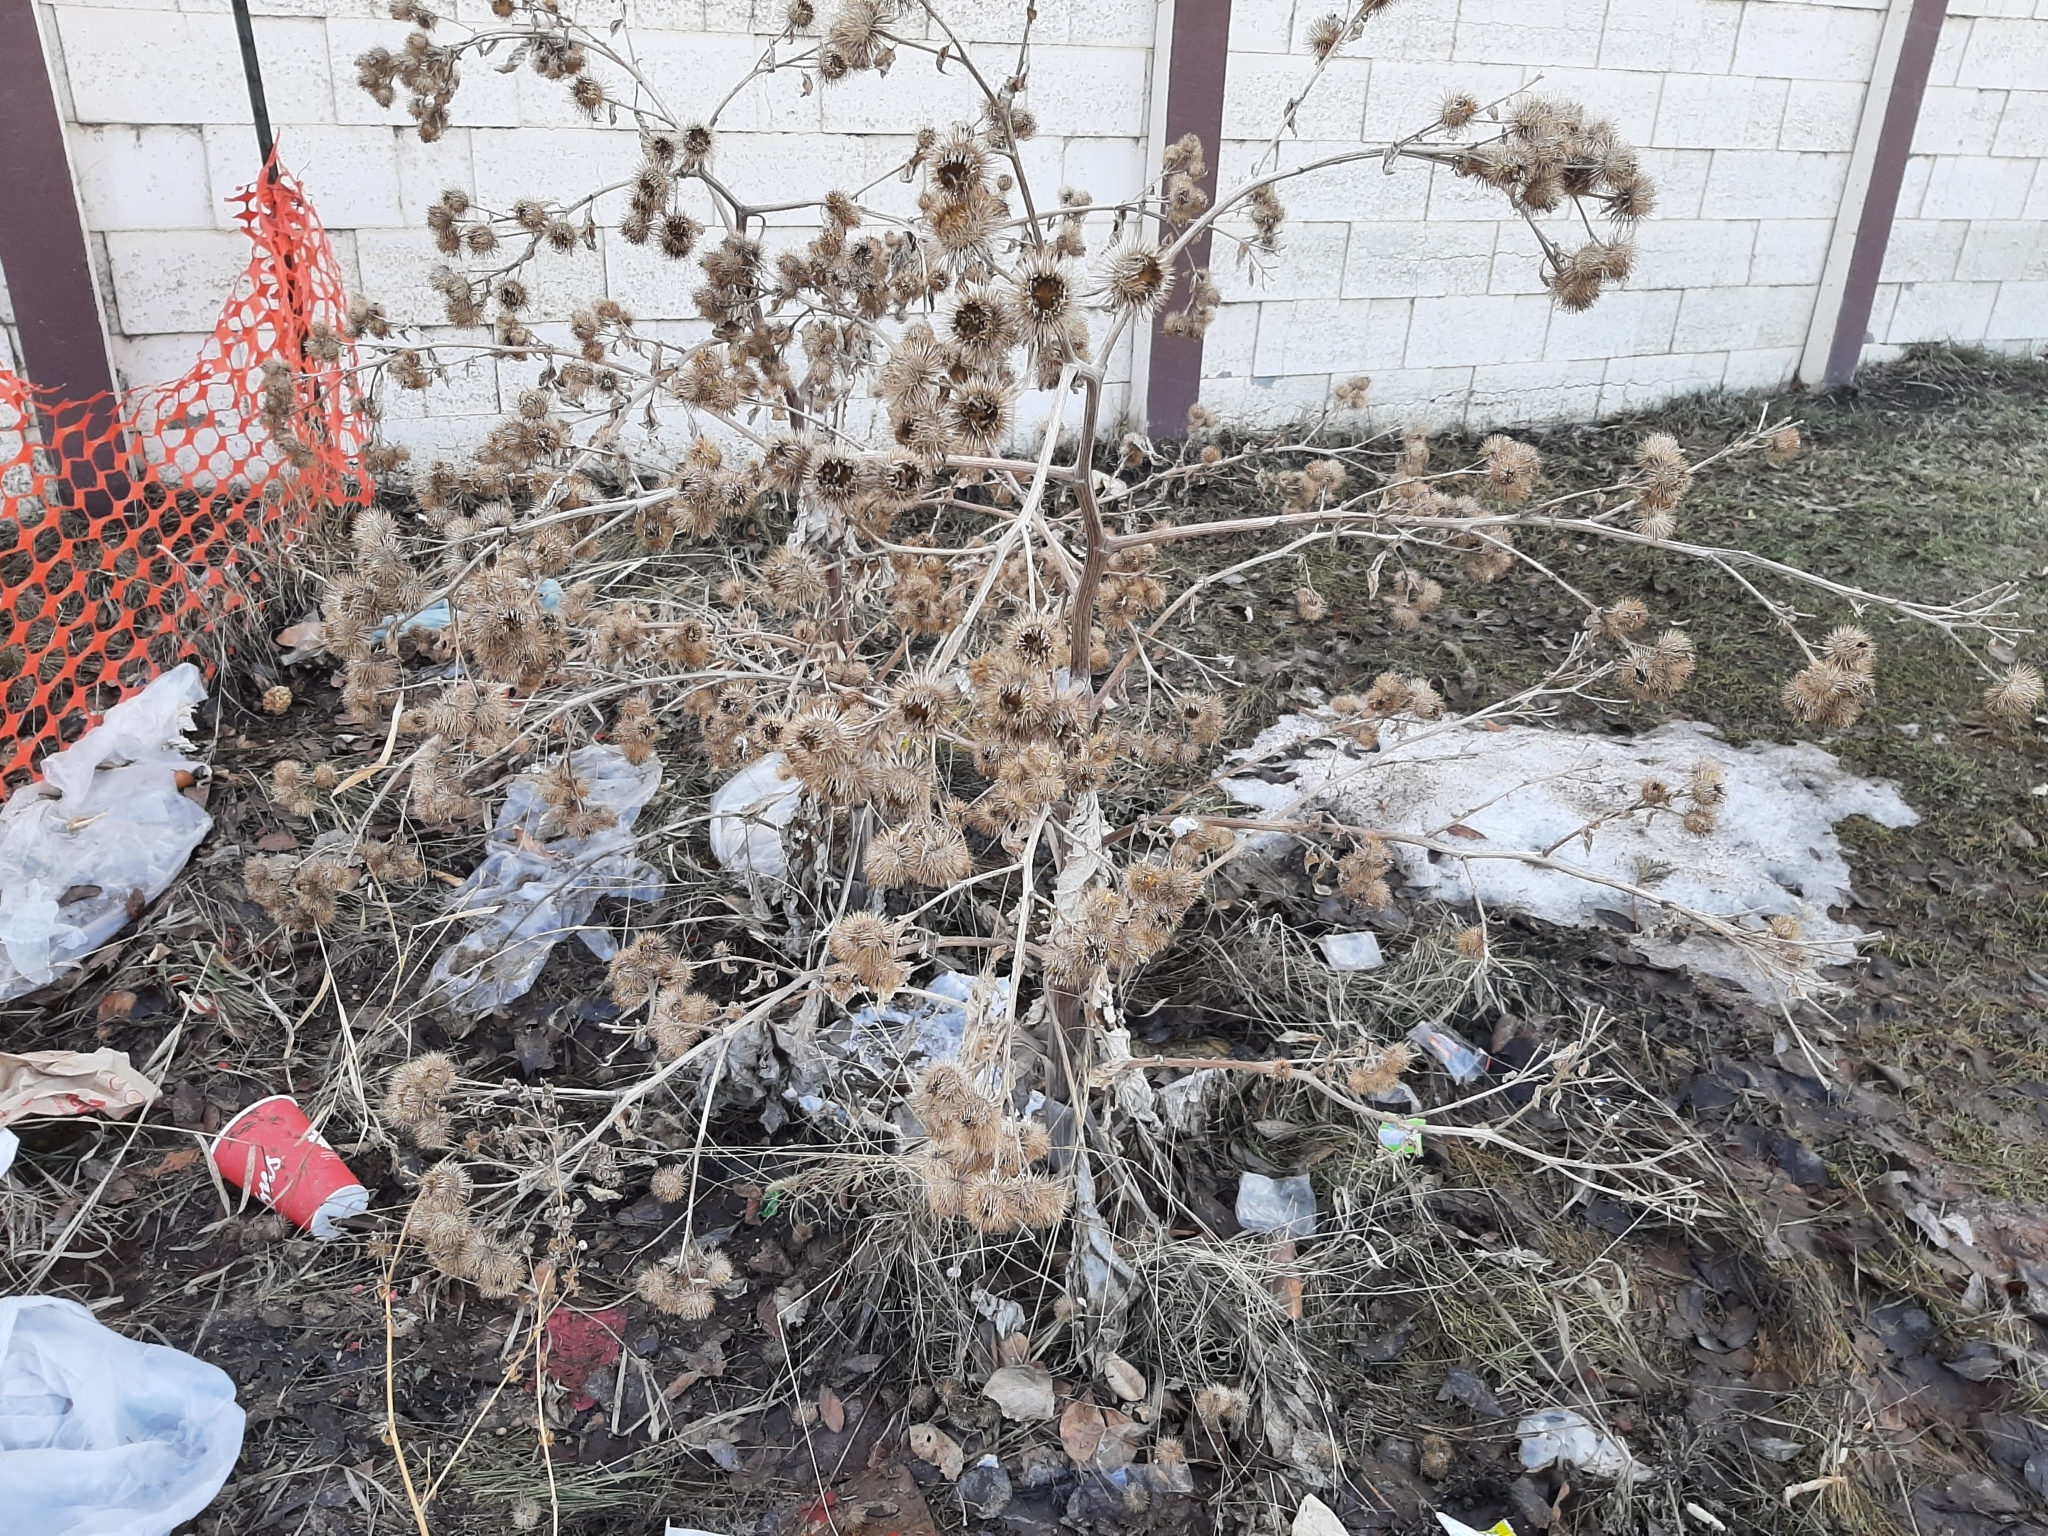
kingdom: Plantae
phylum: Tracheophyta
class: Magnoliopsida
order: Asterales
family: Asteraceae
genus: Arctium
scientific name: Arctium minus
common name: Lesser burdock
